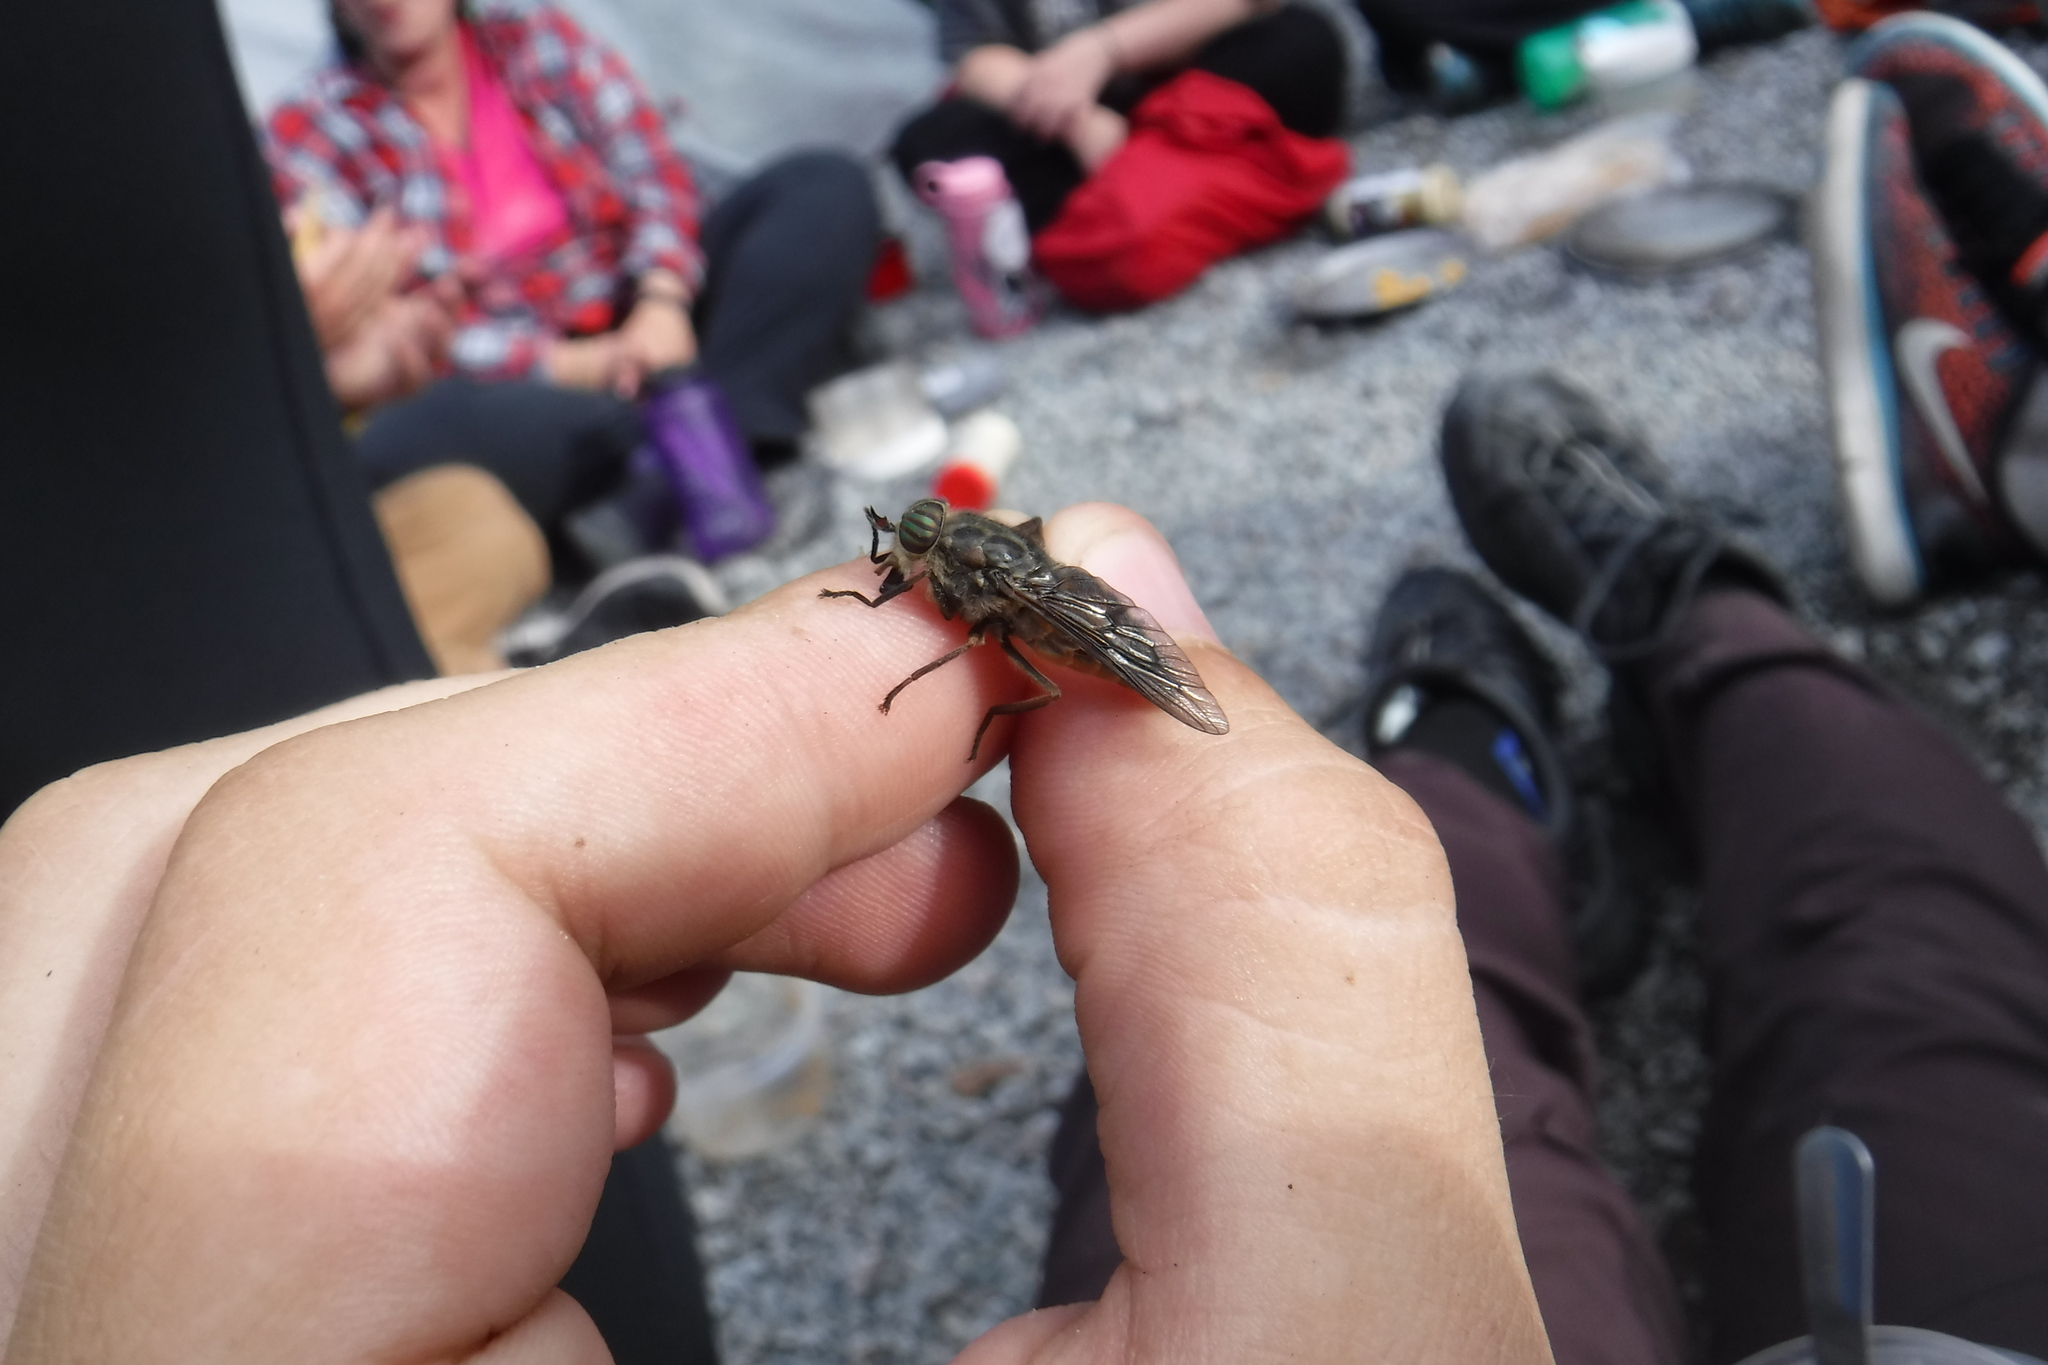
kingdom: Animalia
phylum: Arthropoda
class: Insecta
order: Diptera
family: Tabanidae
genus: Hybomitra
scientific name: Hybomitra arpadi
